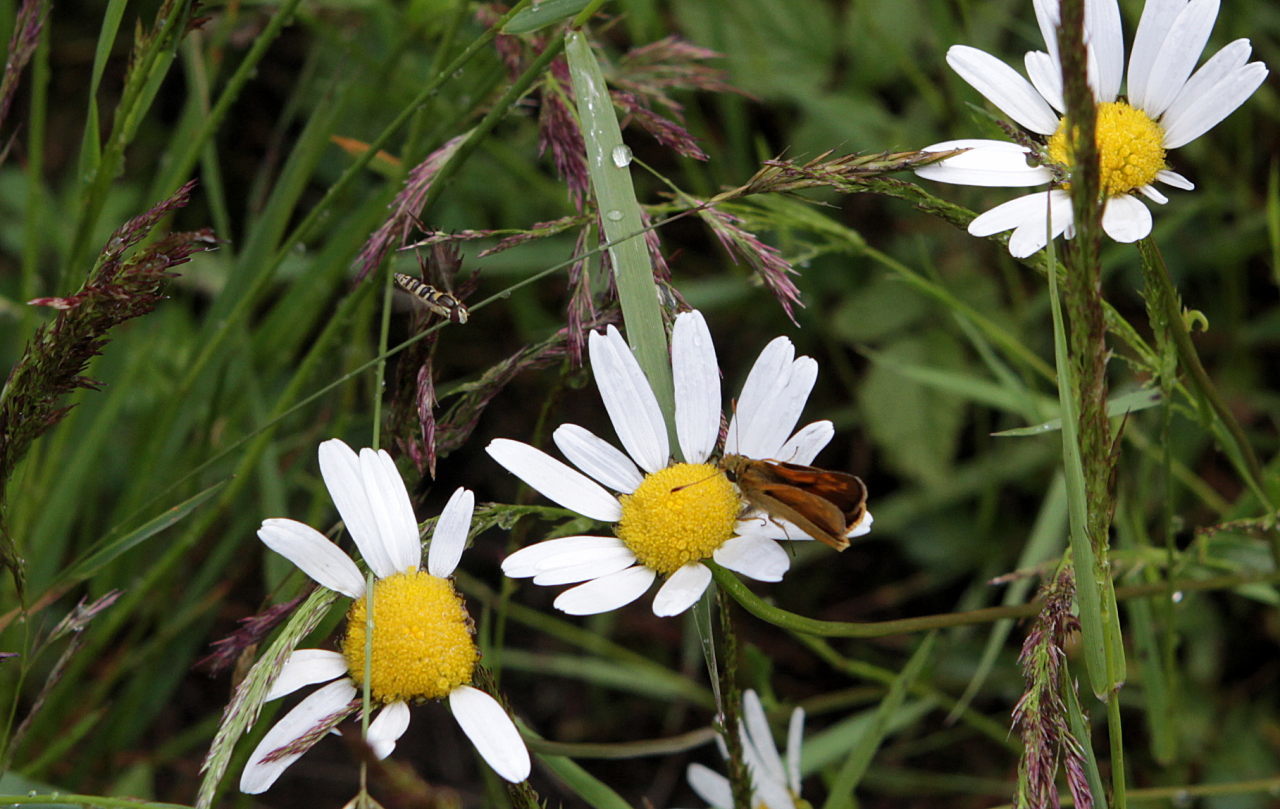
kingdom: Animalia
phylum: Arthropoda
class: Insecta
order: Lepidoptera
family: Hesperiidae
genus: Ochlodes
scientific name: Ochlodes venata
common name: Large skipper
